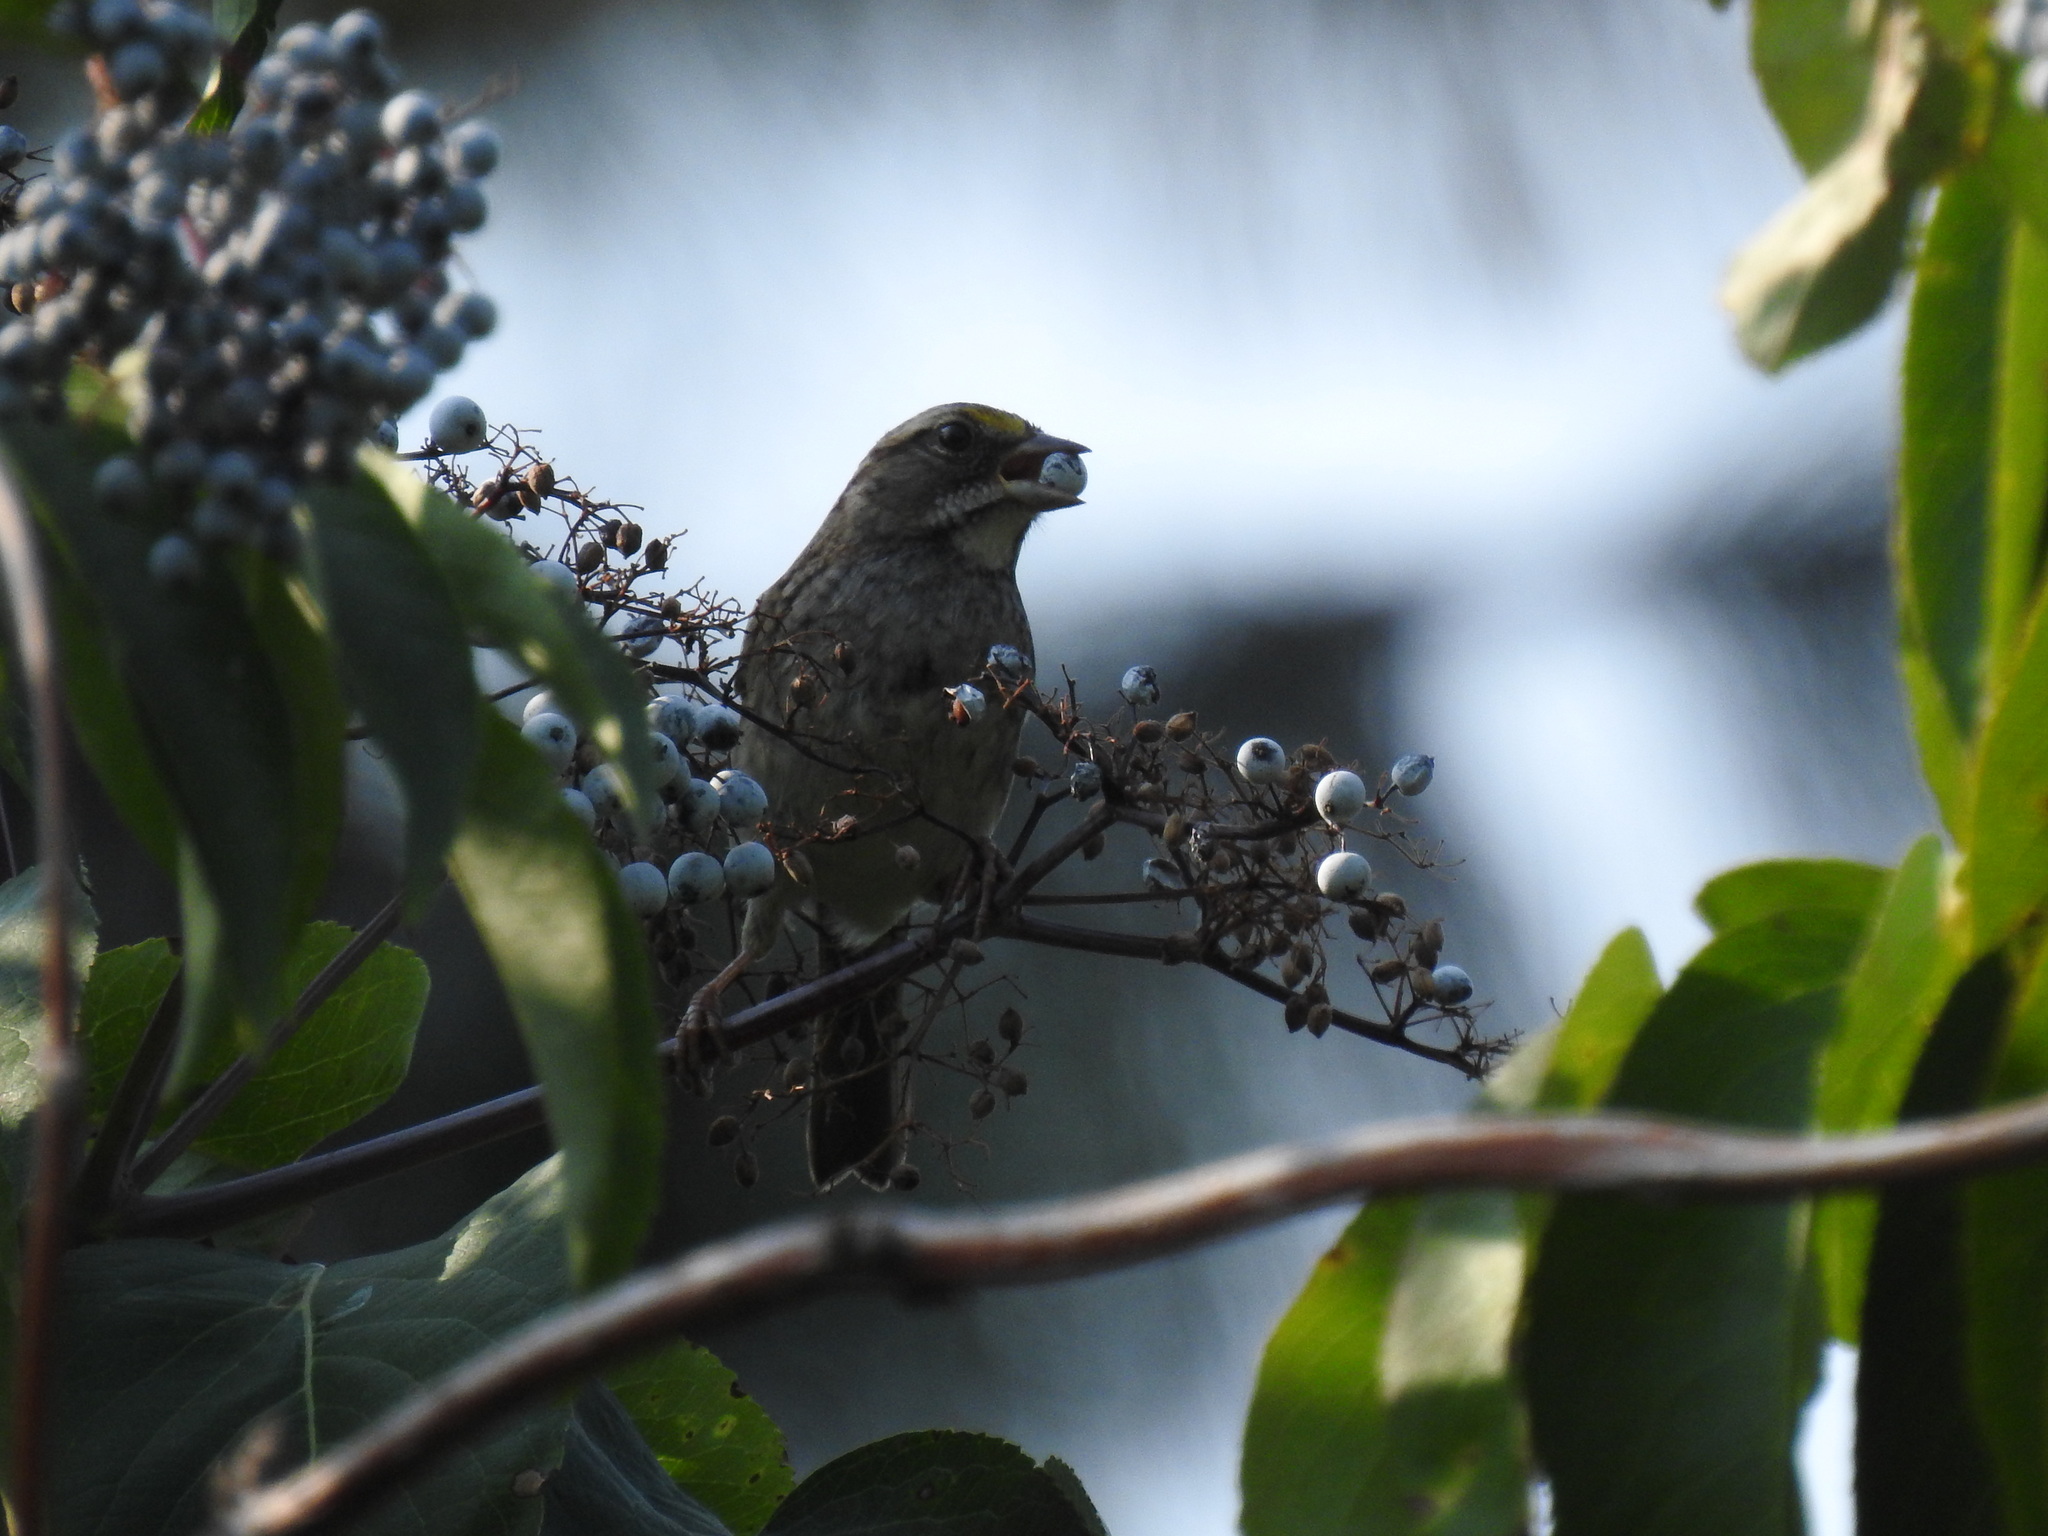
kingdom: Animalia
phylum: Chordata
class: Aves
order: Passeriformes
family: Passerellidae
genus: Zonotrichia
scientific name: Zonotrichia albicollis
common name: White-throated sparrow
